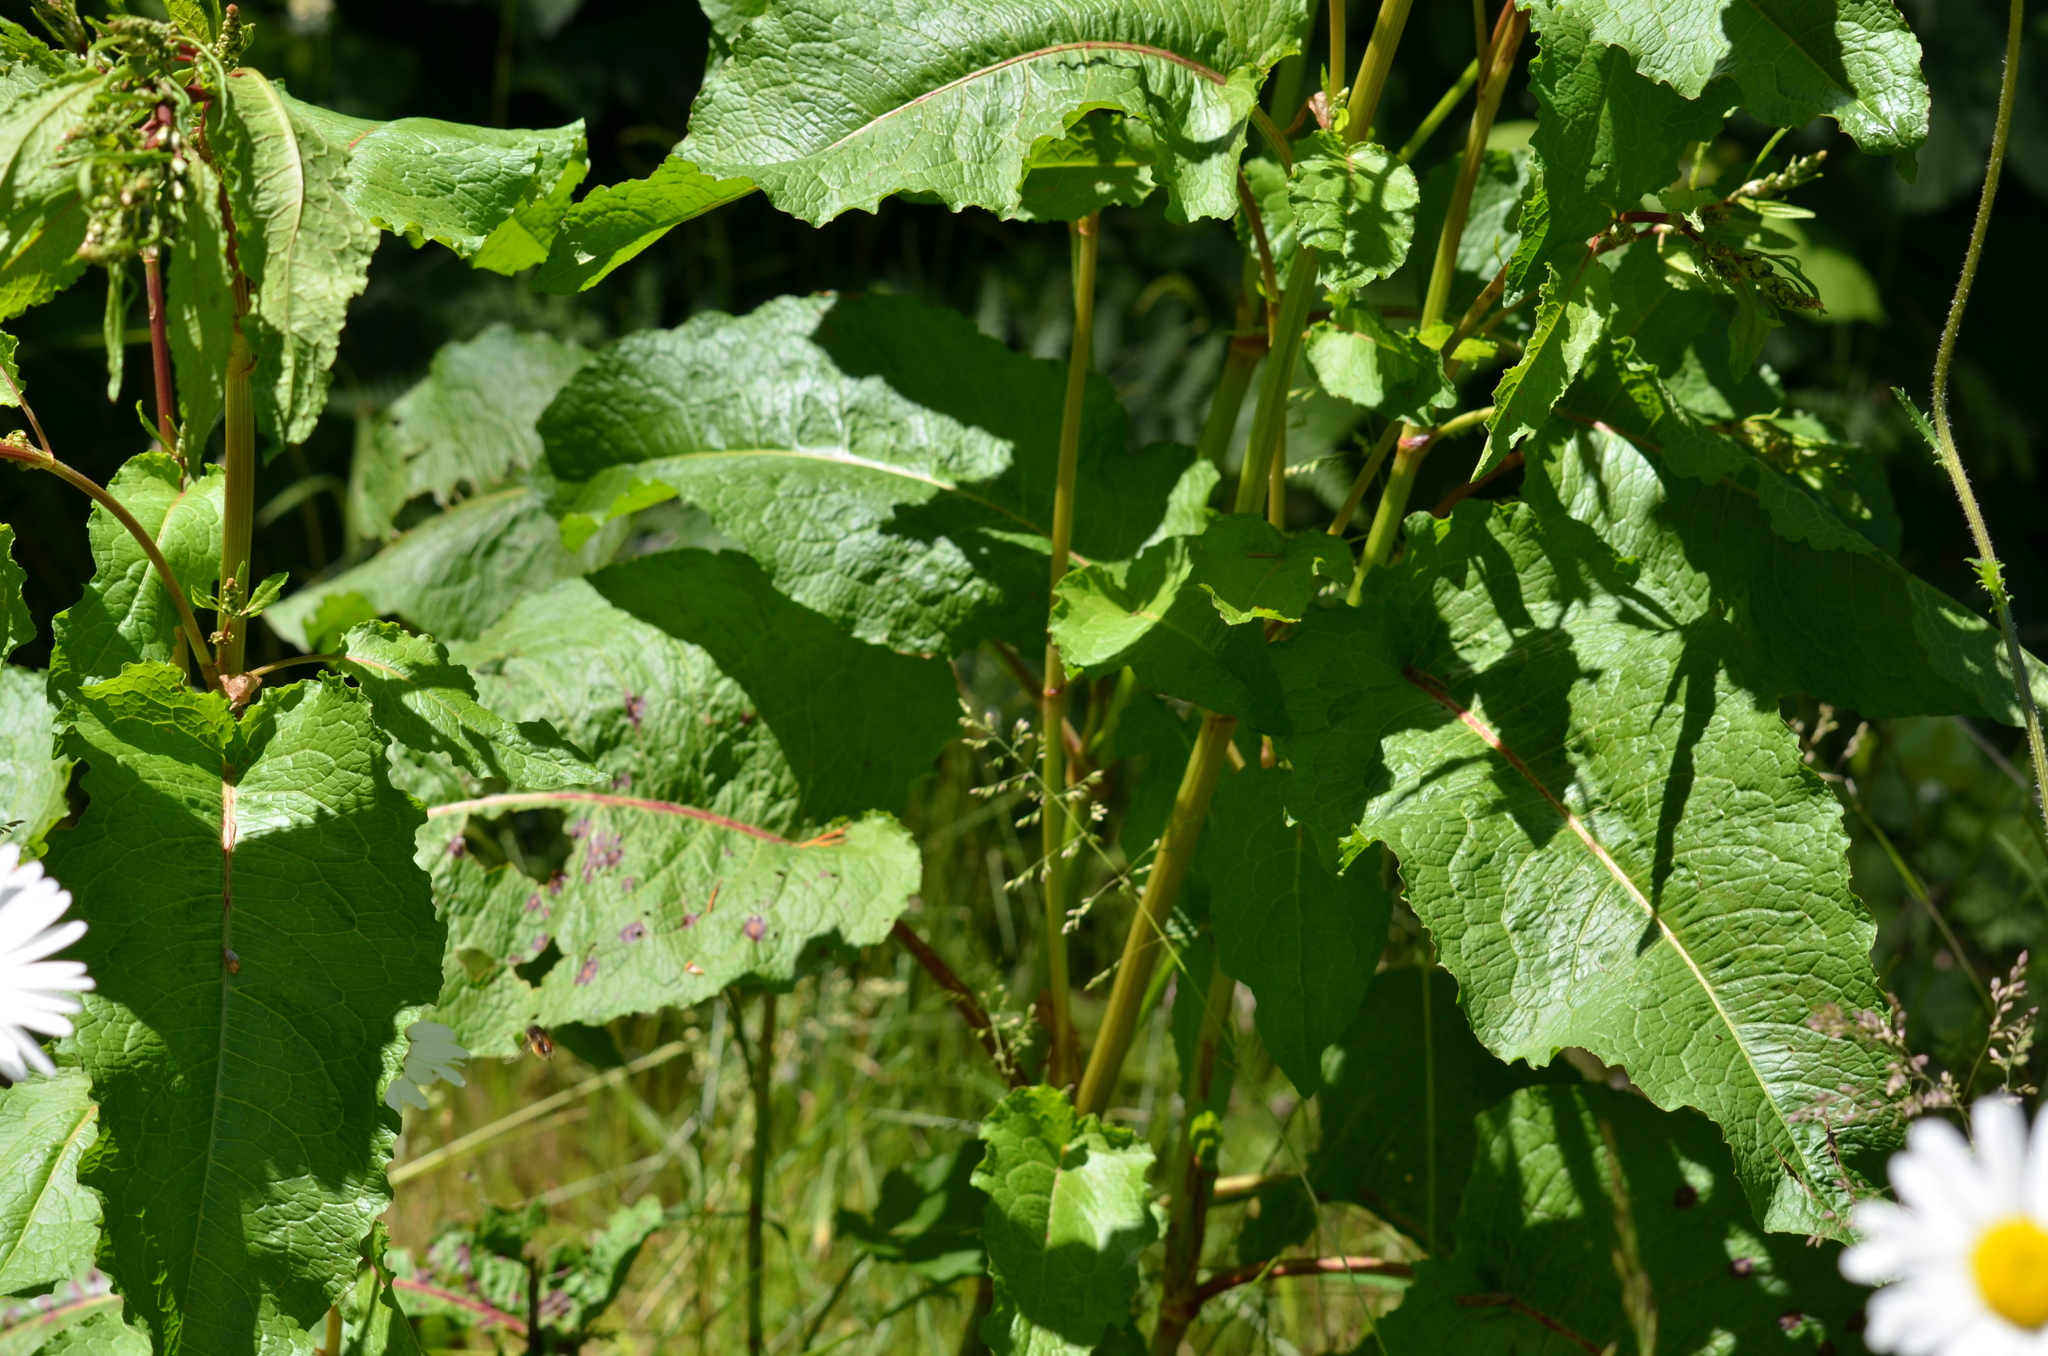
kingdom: Plantae
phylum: Tracheophyta
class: Magnoliopsida
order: Caryophyllales
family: Polygonaceae
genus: Rumex
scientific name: Rumex obtusifolius
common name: Bitter dock
